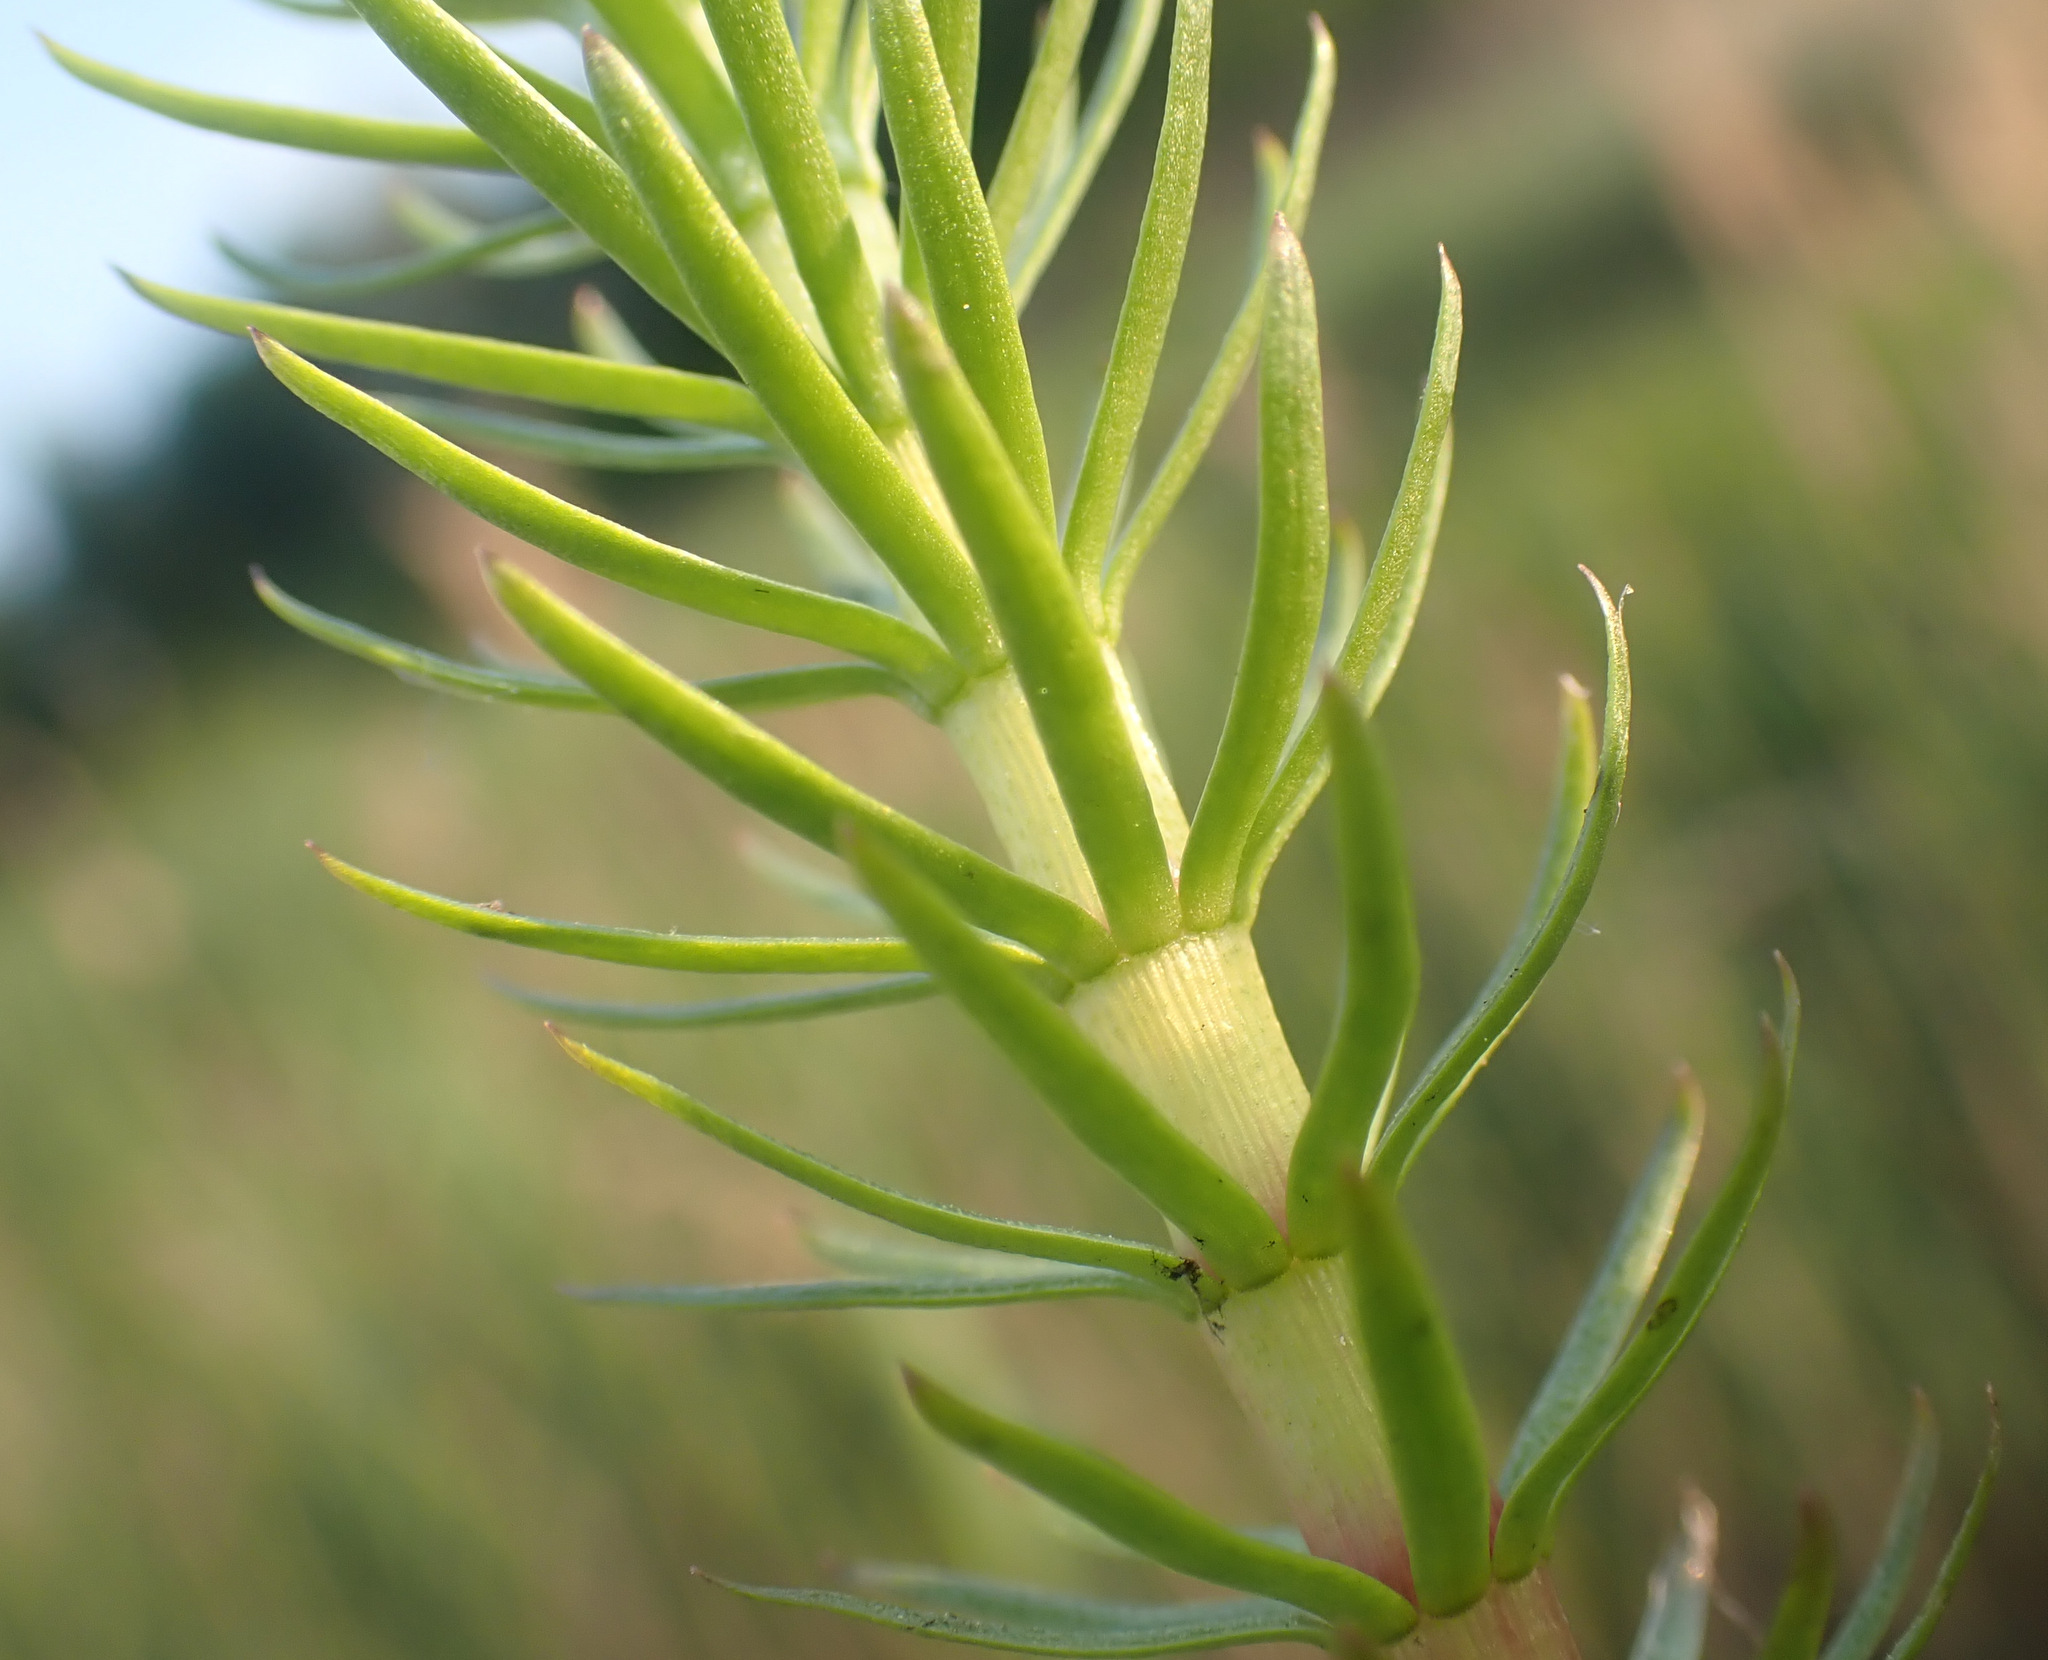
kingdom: Plantae
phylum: Tracheophyta
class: Magnoliopsida
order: Lamiales
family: Plantaginaceae
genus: Hippuris
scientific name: Hippuris vulgaris
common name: Mare's-tail
